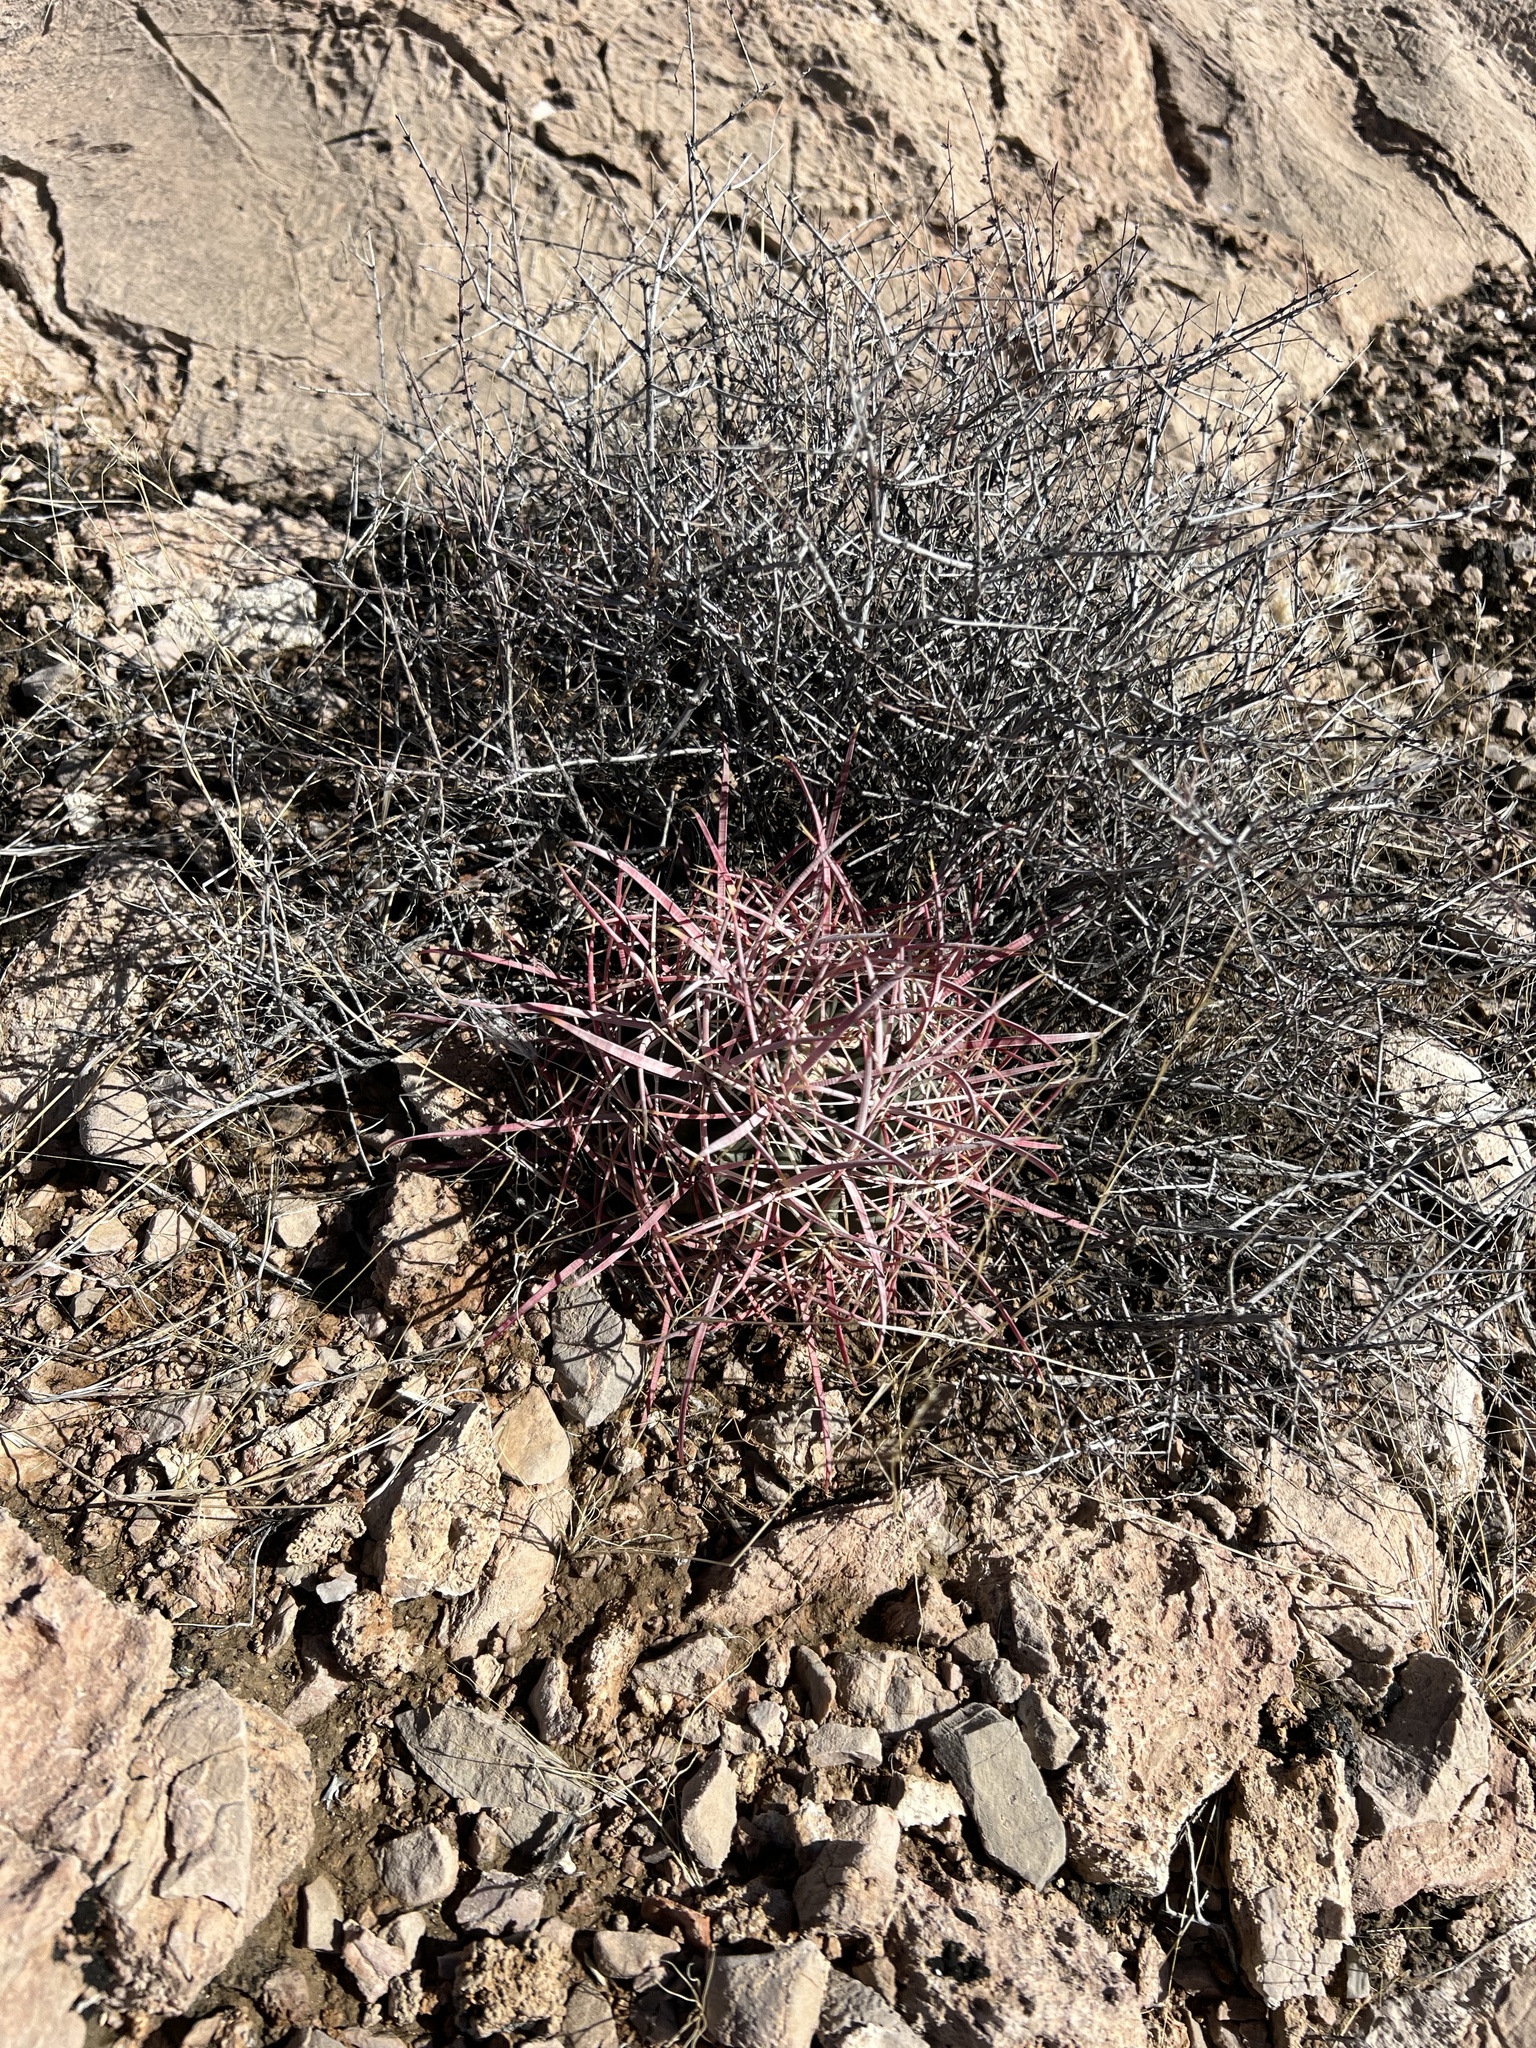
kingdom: Plantae
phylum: Tracheophyta
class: Magnoliopsida
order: Caryophyllales
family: Cactaceae
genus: Ferocactus
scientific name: Ferocactus cylindraceus
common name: California barrel cactus
